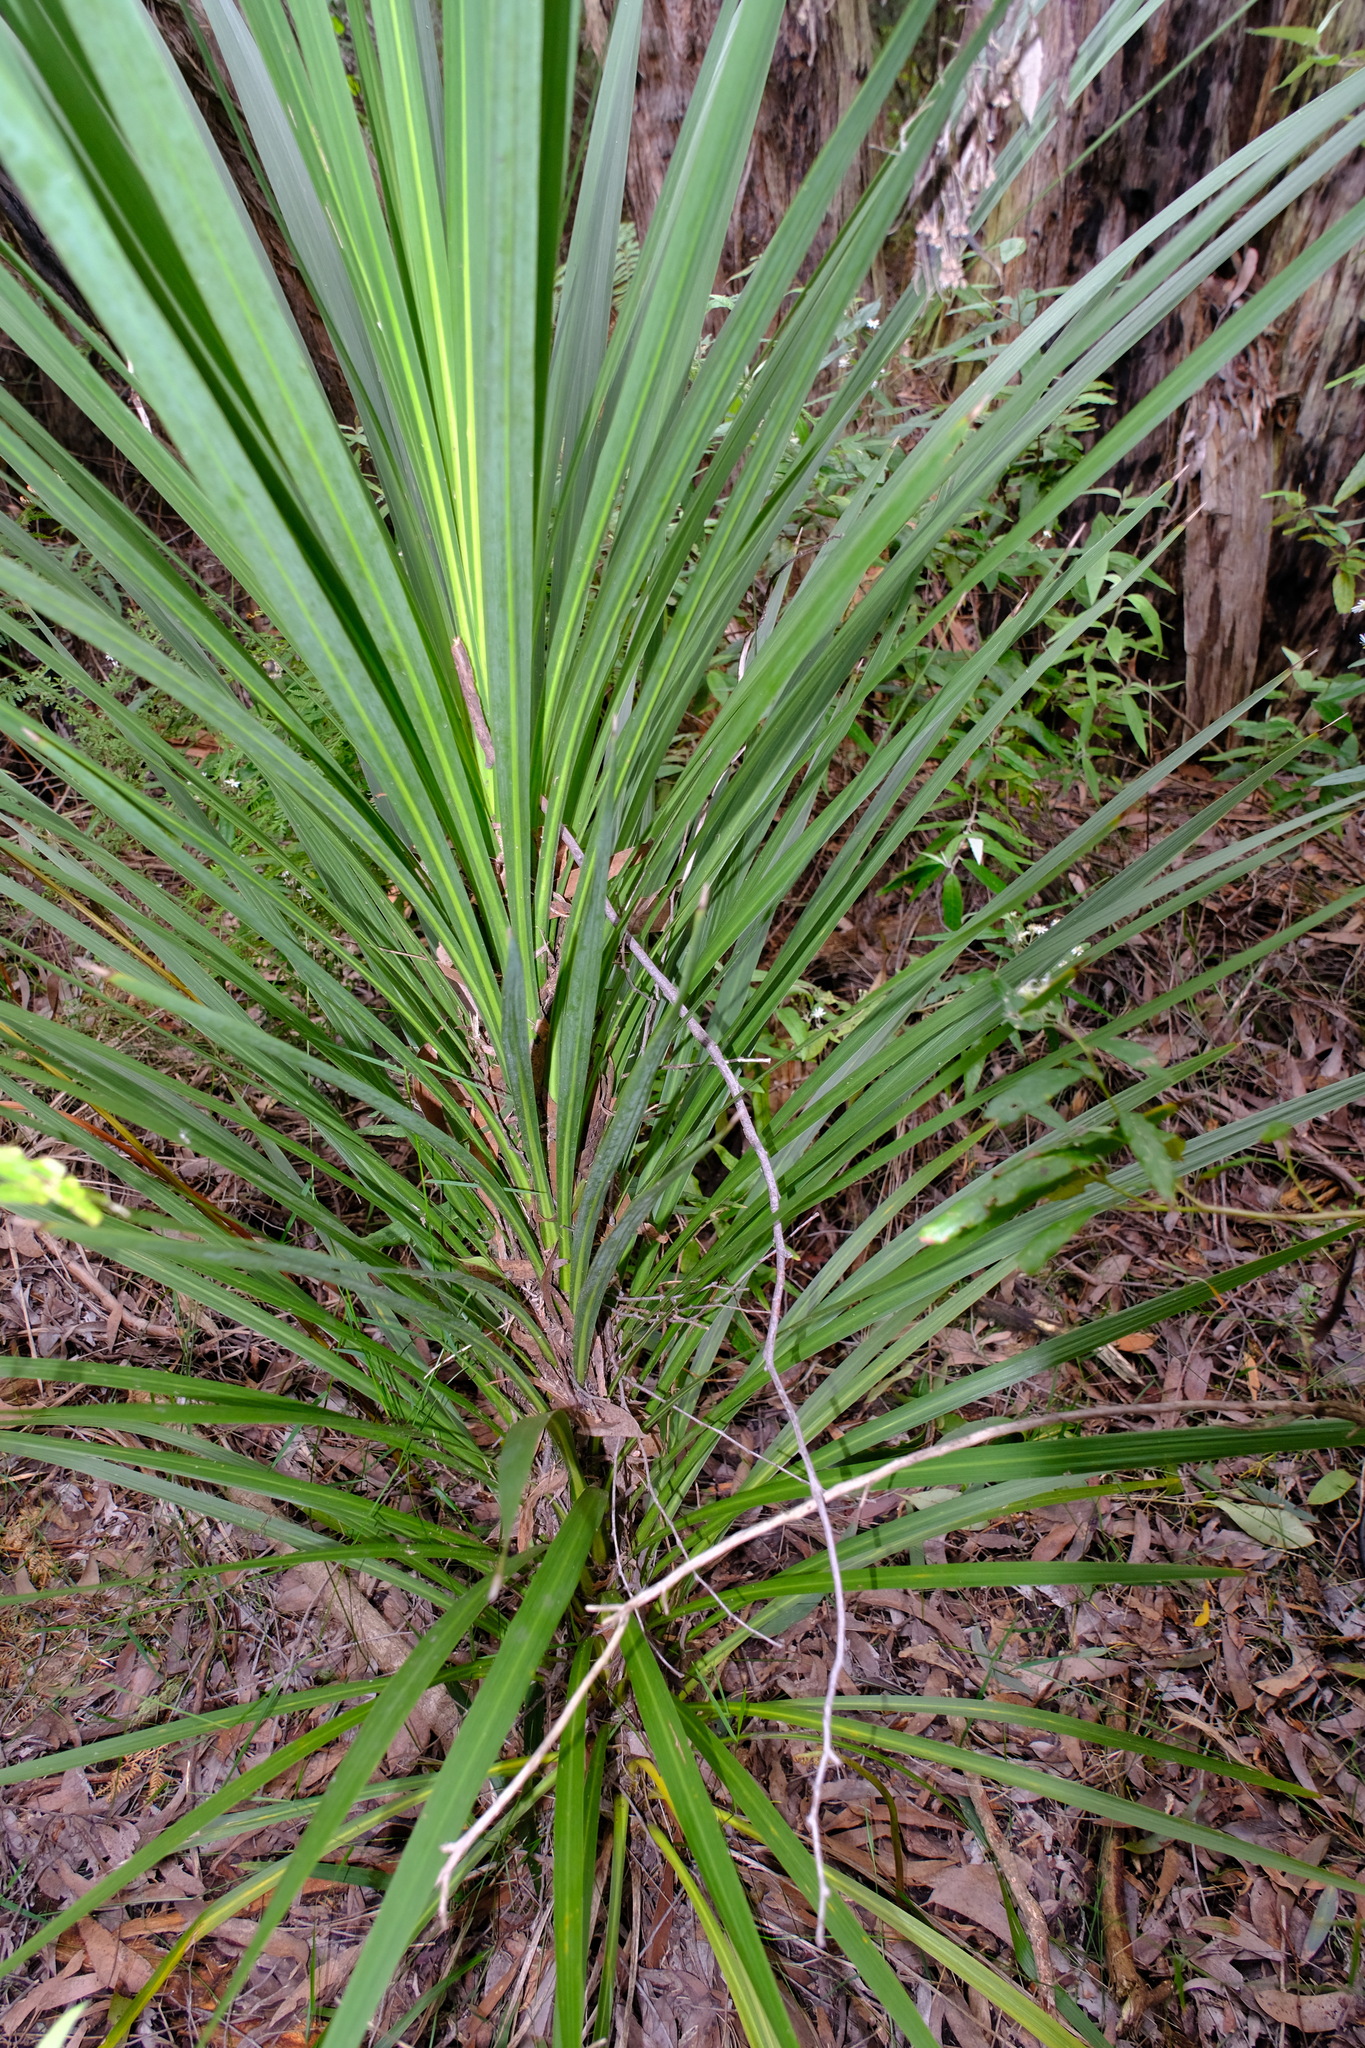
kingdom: Plantae
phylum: Tracheophyta
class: Liliopsida
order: Asparagales
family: Asparagaceae
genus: Cordyline
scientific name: Cordyline australis
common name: Cabbage-palm
